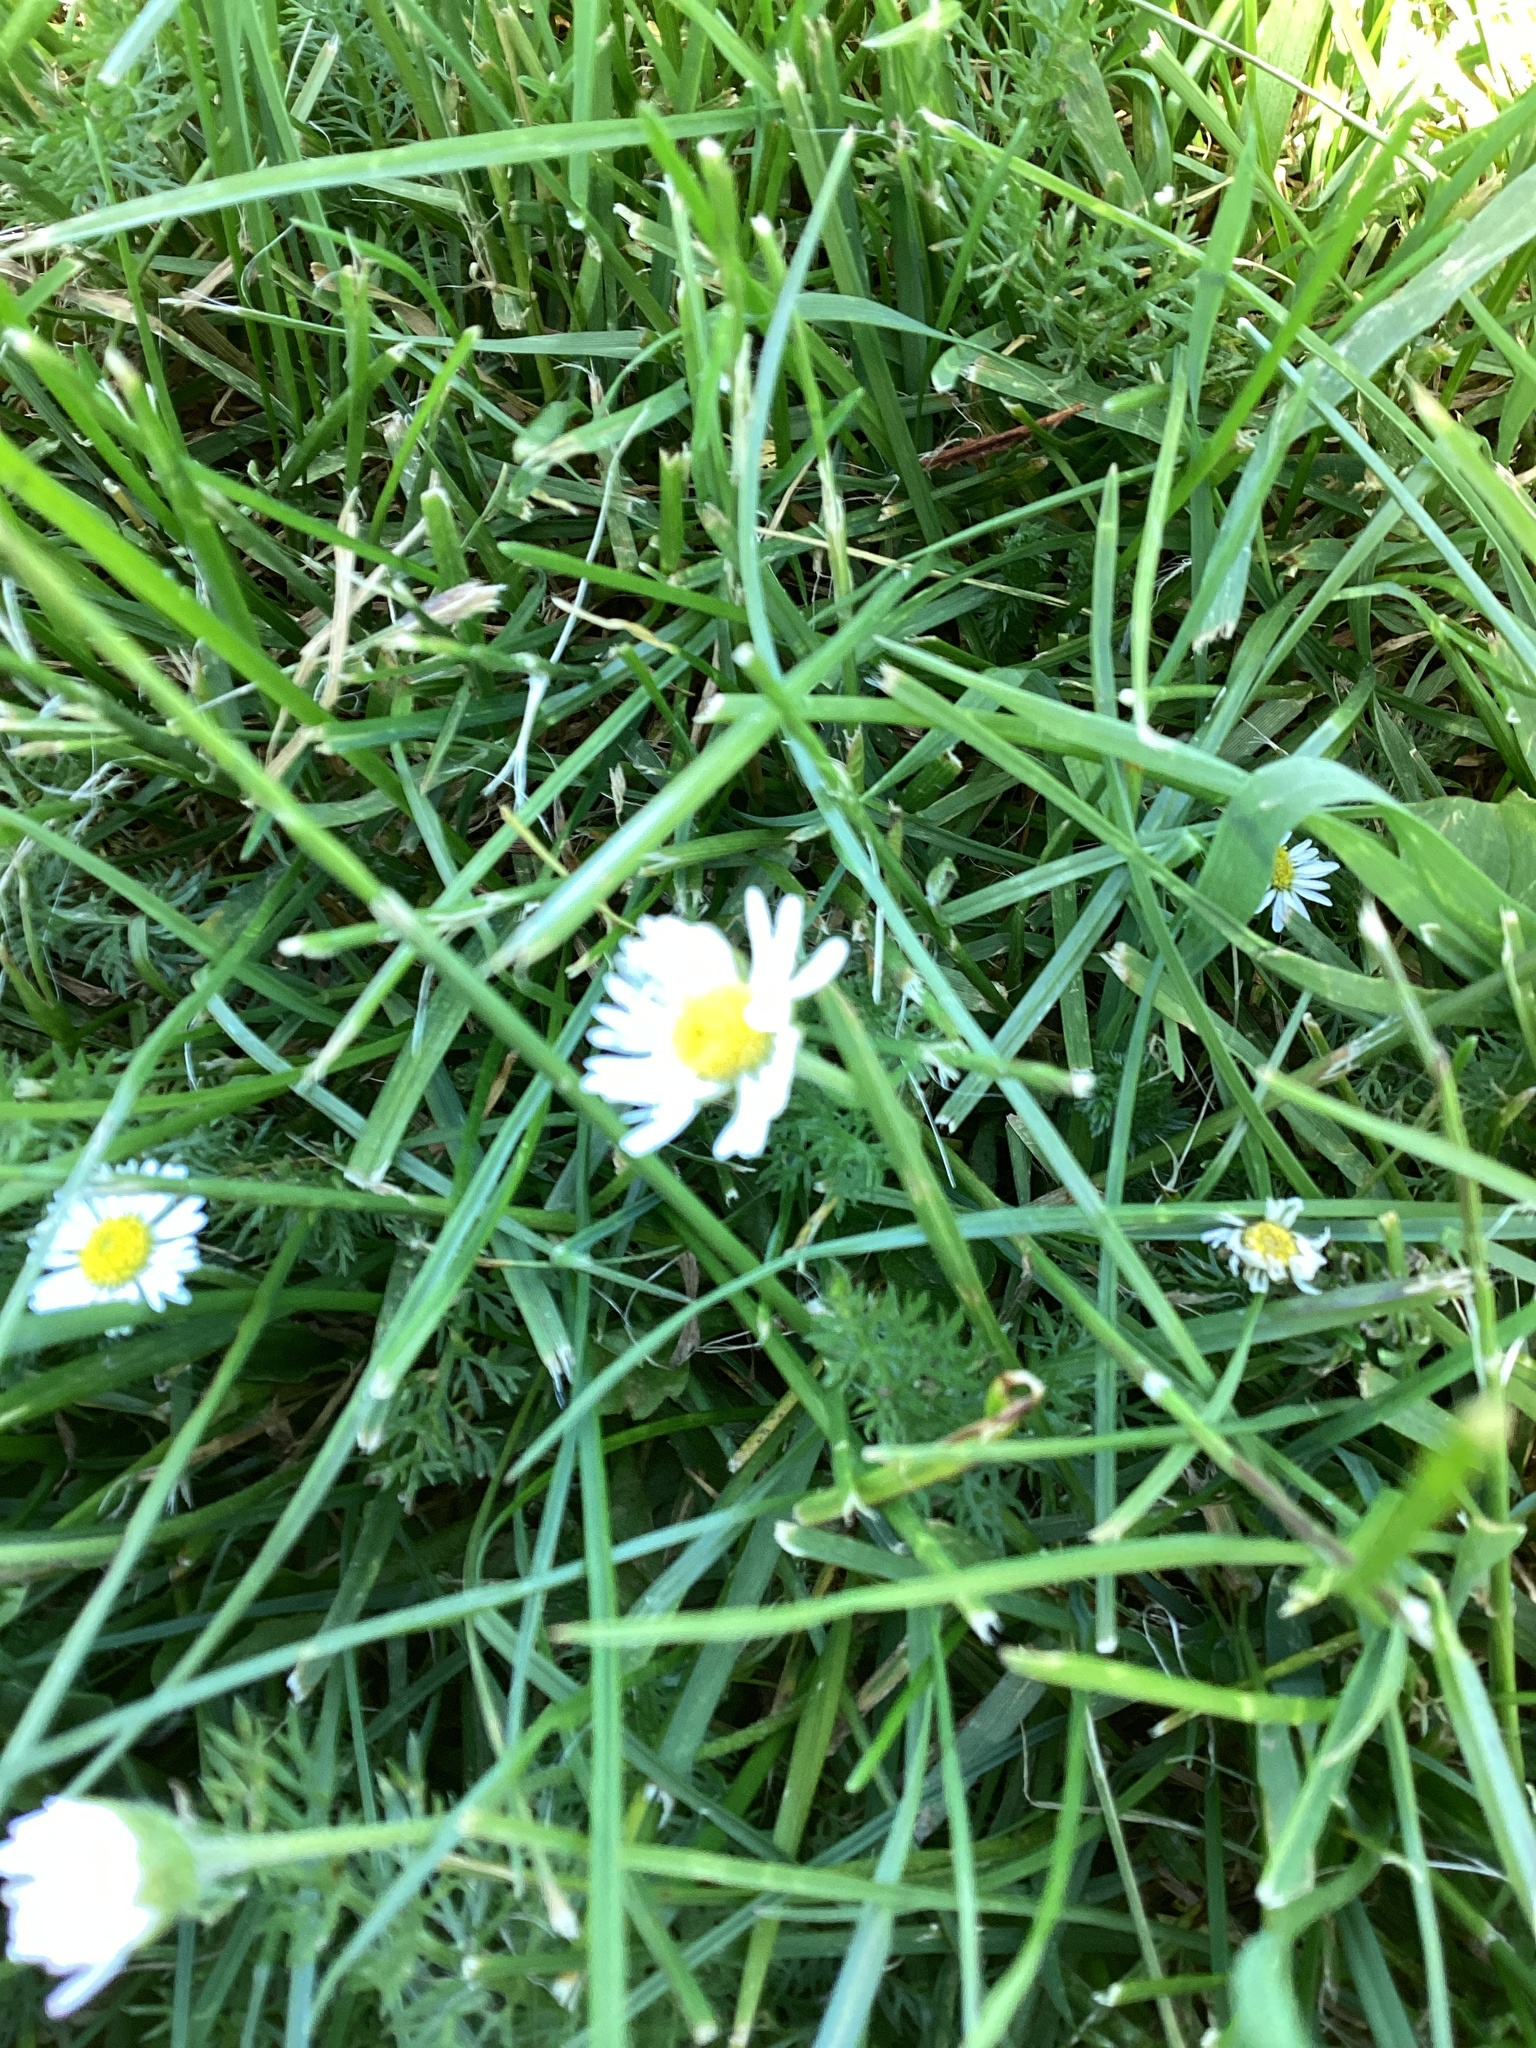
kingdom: Plantae
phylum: Tracheophyta
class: Magnoliopsida
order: Asterales
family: Asteraceae
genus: Bellis
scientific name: Bellis perennis
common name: Lawndaisy
